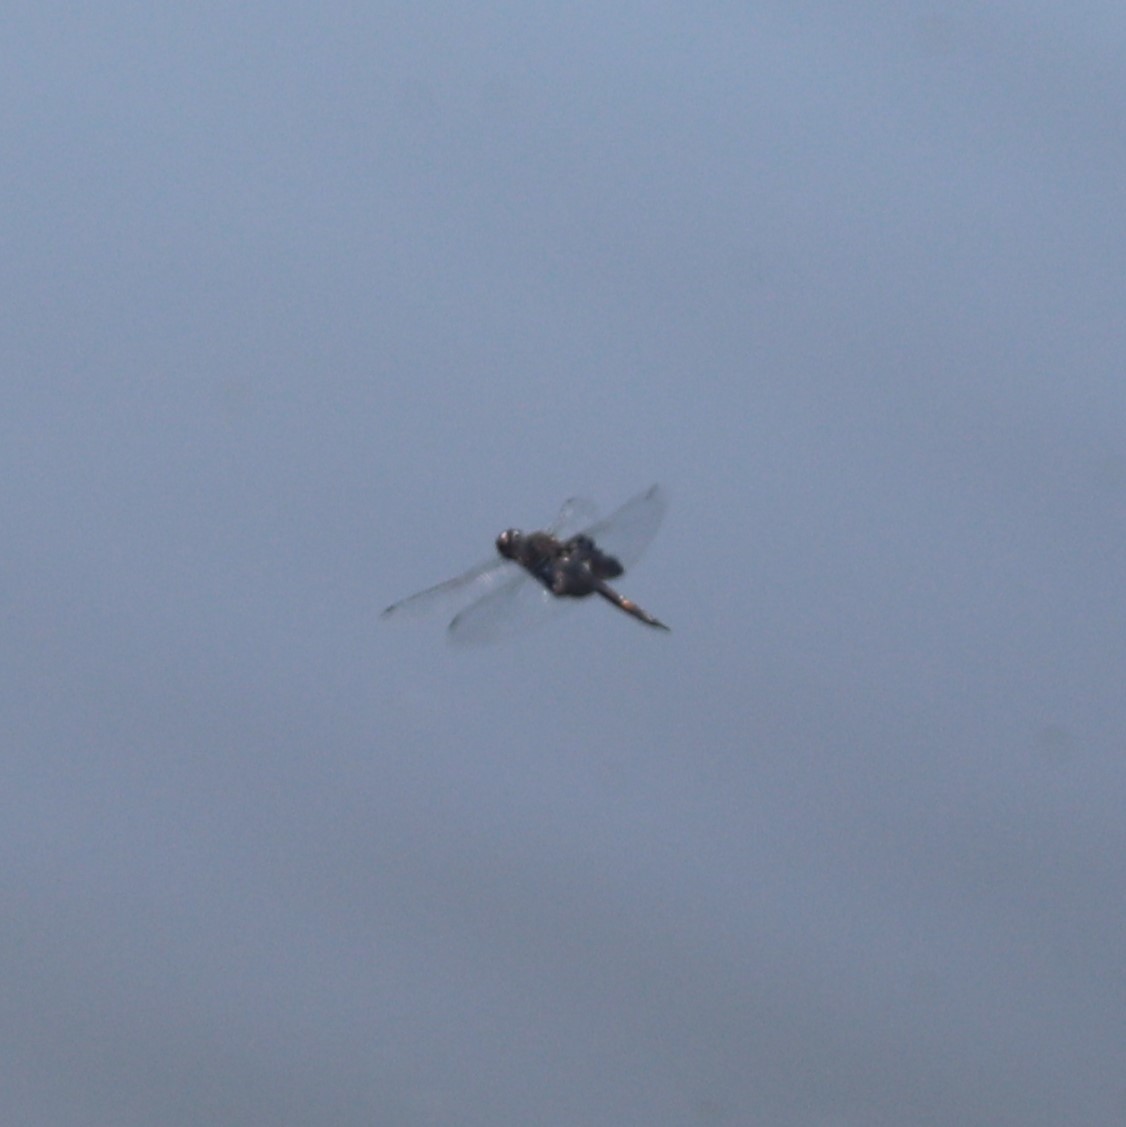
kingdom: Animalia
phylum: Arthropoda
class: Insecta
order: Odonata
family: Libellulidae
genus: Tramea
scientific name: Tramea lacerata
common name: Black saddlebags
